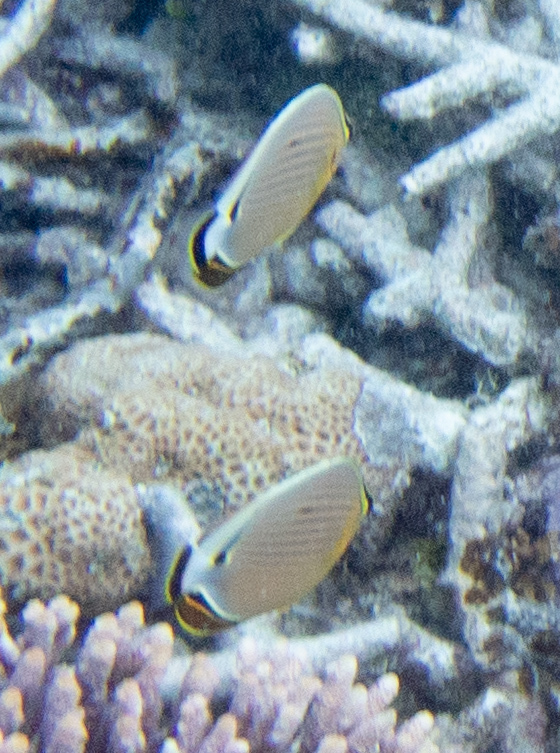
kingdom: Animalia
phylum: Chordata
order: Perciformes
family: Chaetodontidae
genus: Chaetodon
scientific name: Chaetodon lunulatus
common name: Redfin butterflyfish
